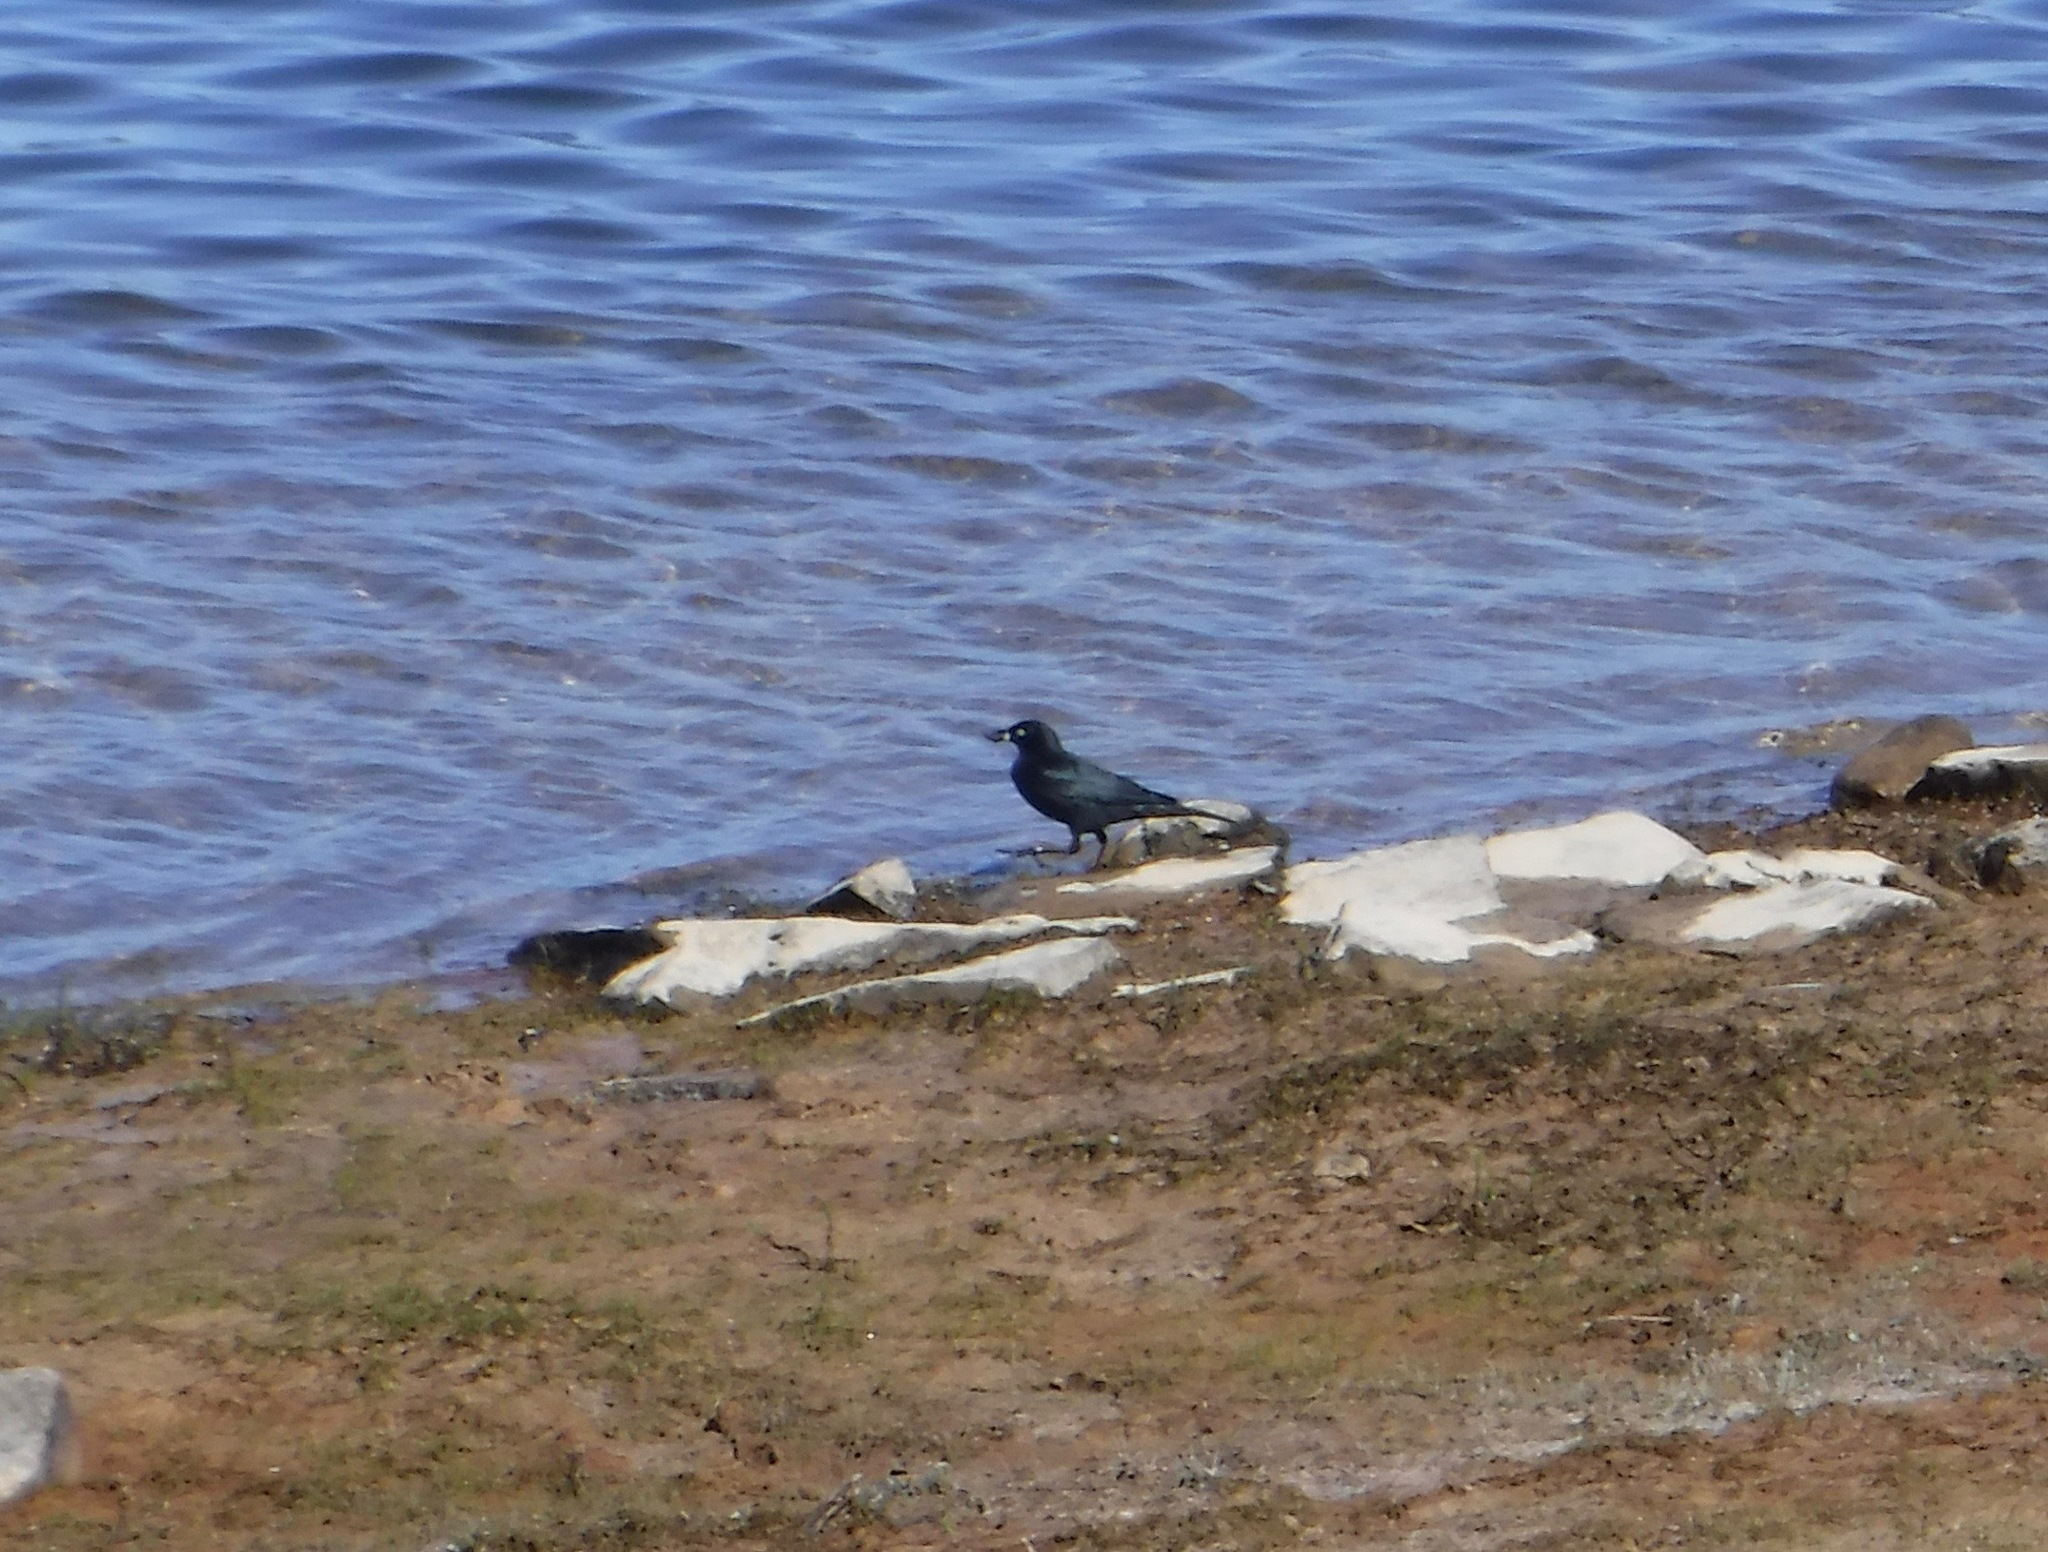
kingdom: Animalia
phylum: Chordata
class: Aves
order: Passeriformes
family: Icteridae
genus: Euphagus
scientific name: Euphagus carolinus
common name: Rusty blackbird
